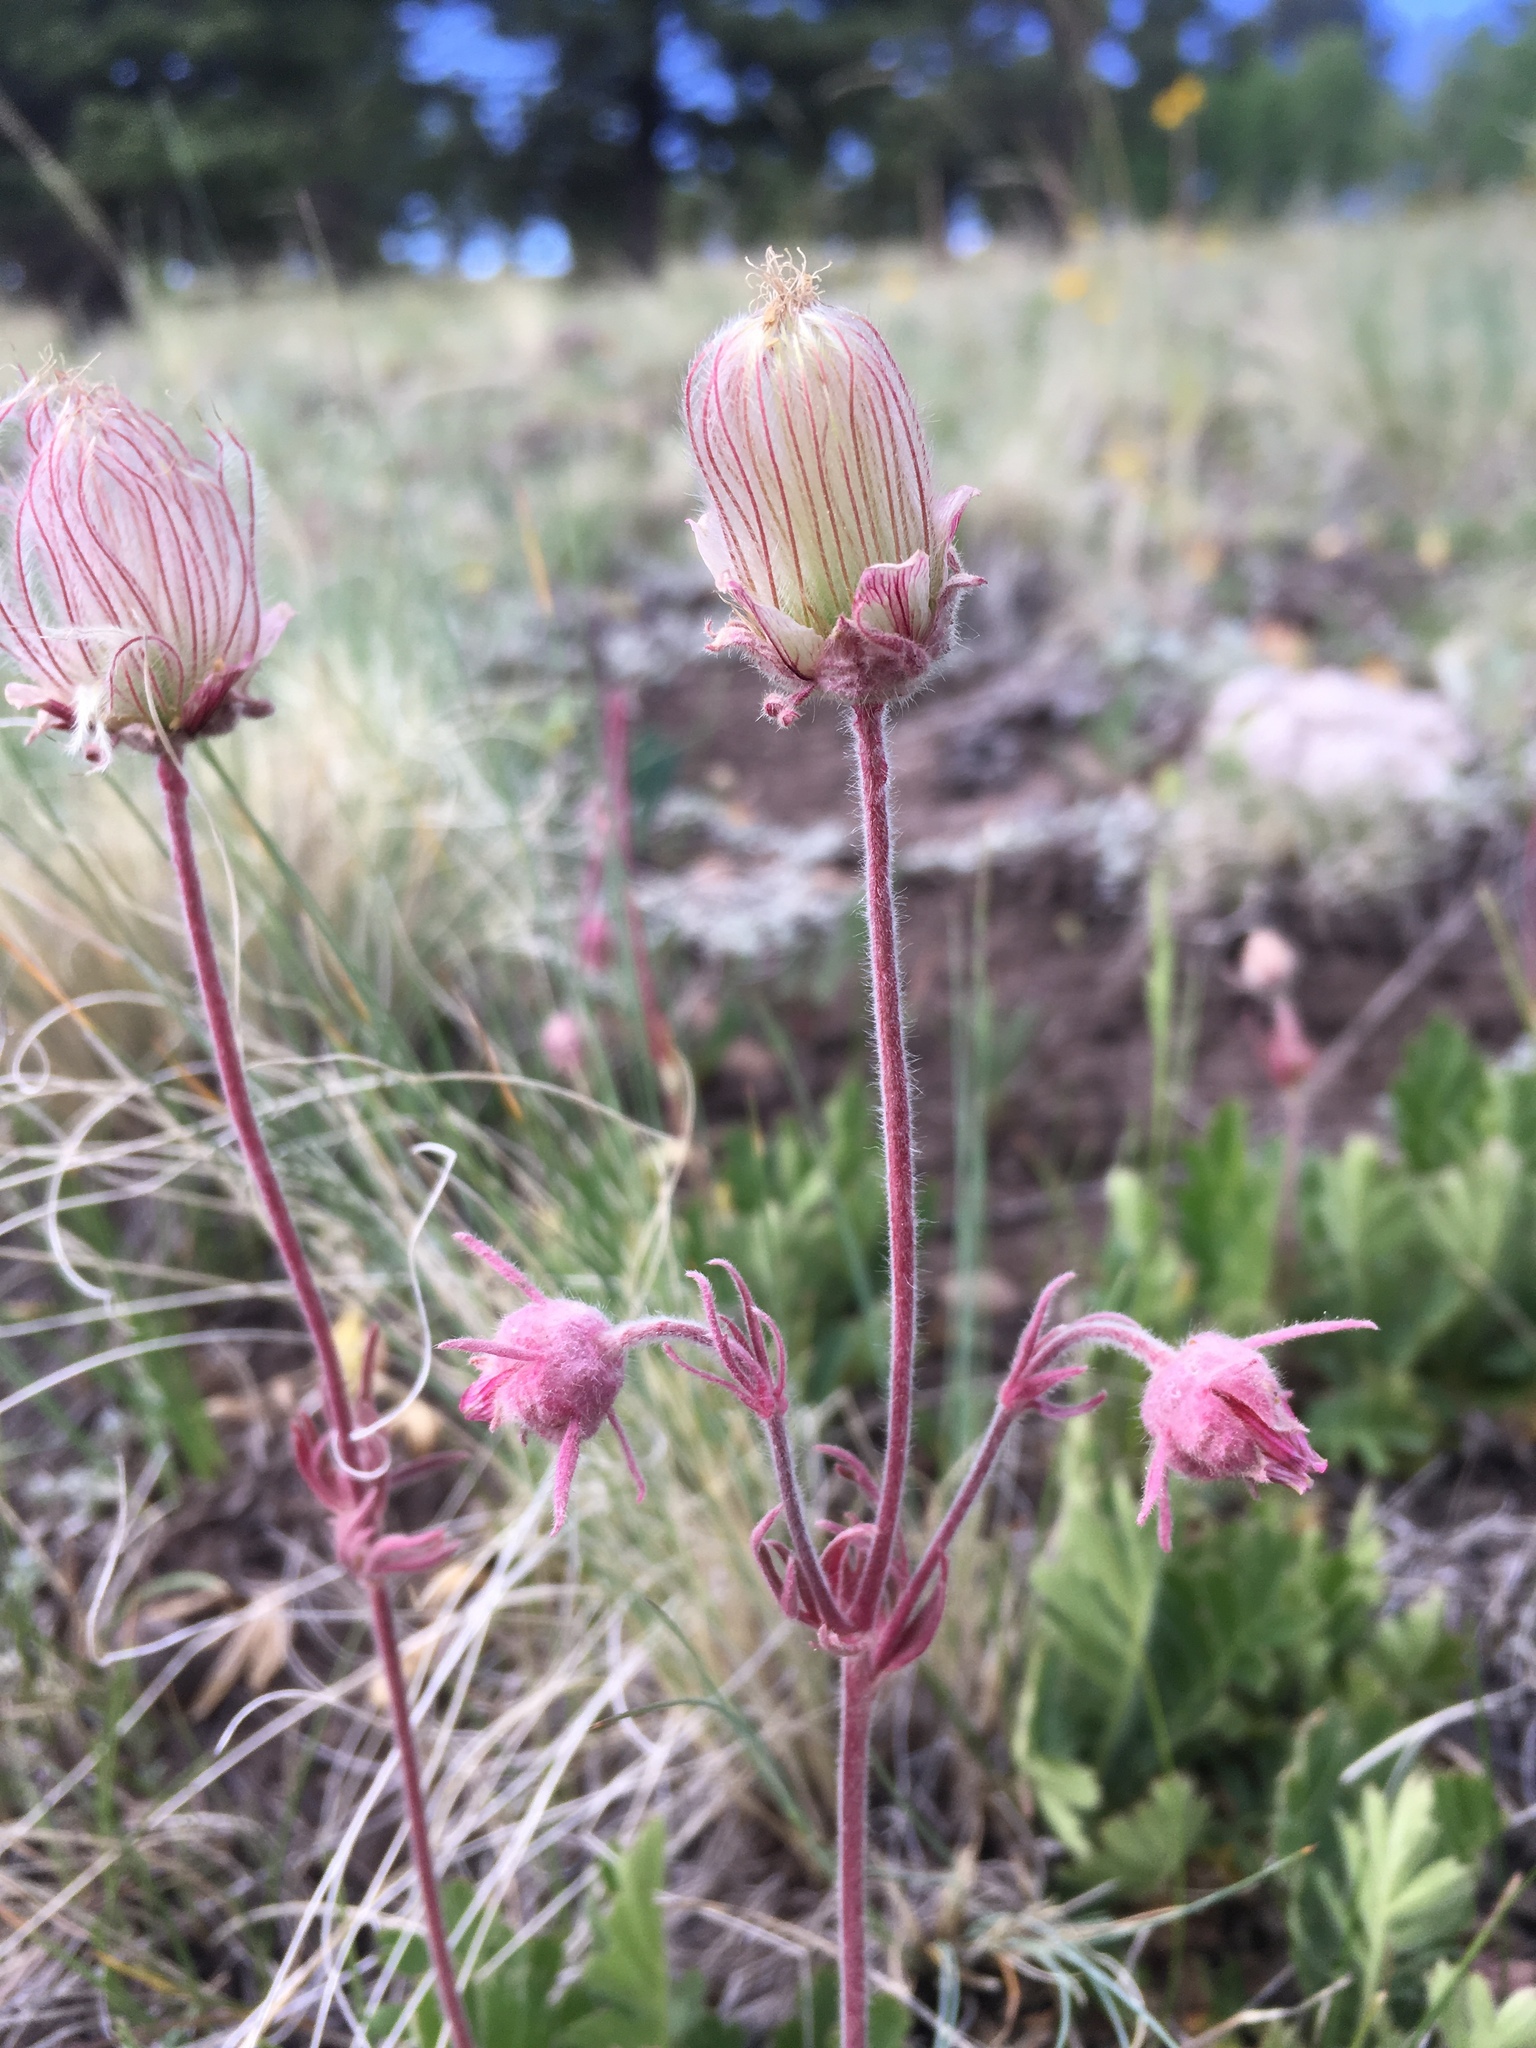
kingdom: Plantae
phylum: Tracheophyta
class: Magnoliopsida
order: Rosales
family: Rosaceae
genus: Geum
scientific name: Geum triflorum
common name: Old man's whiskers
